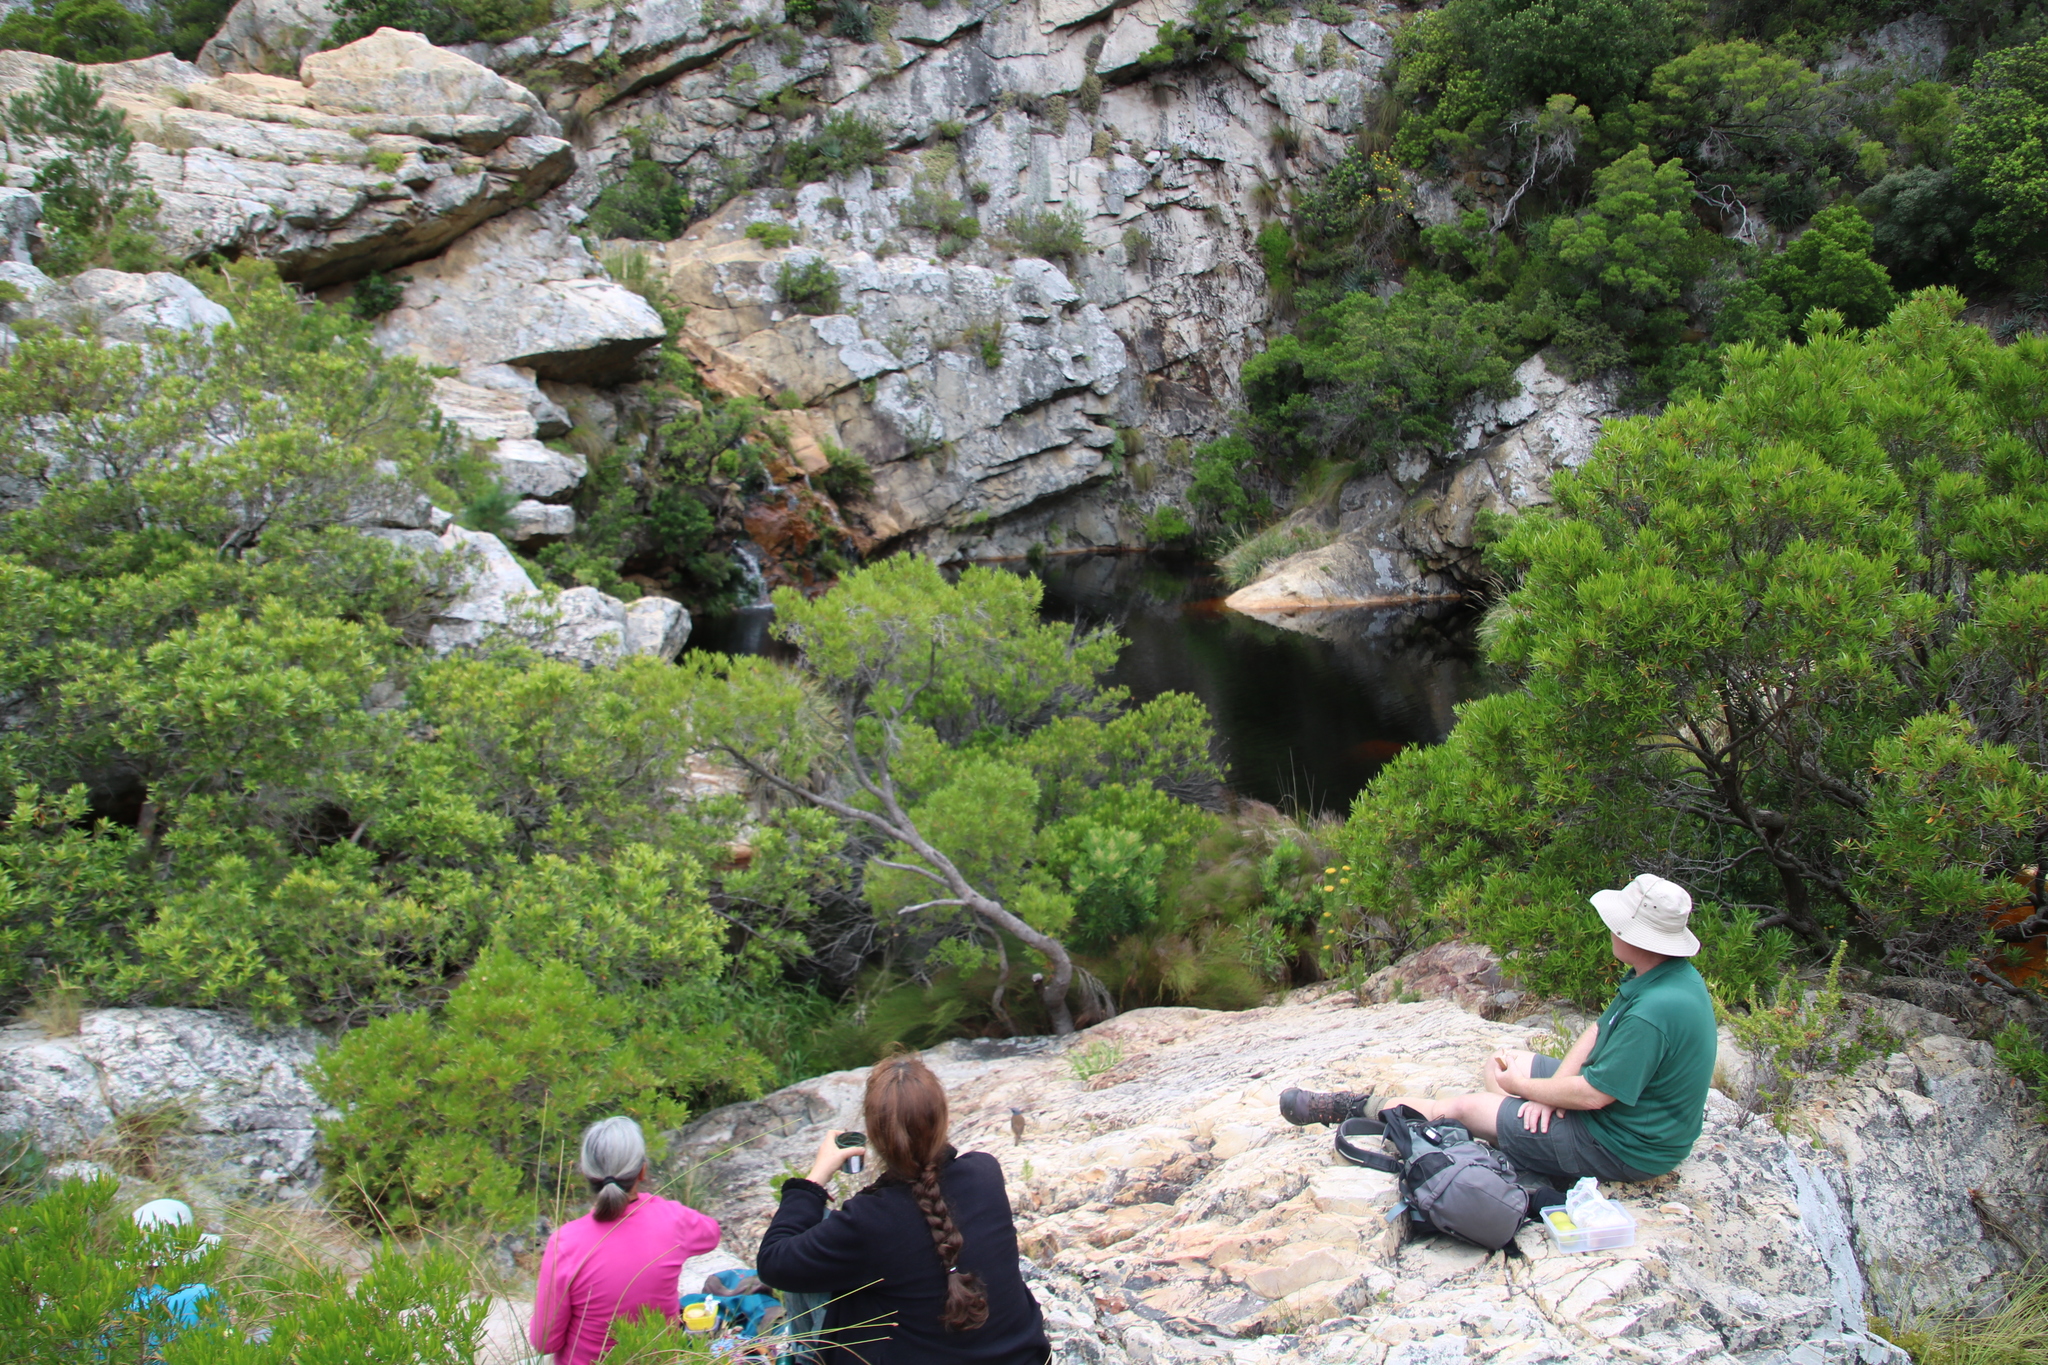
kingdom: Plantae
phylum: Tracheophyta
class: Magnoliopsida
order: Myrtales
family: Myrtaceae
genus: Callistemon
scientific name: Callistemon lanceolatus
